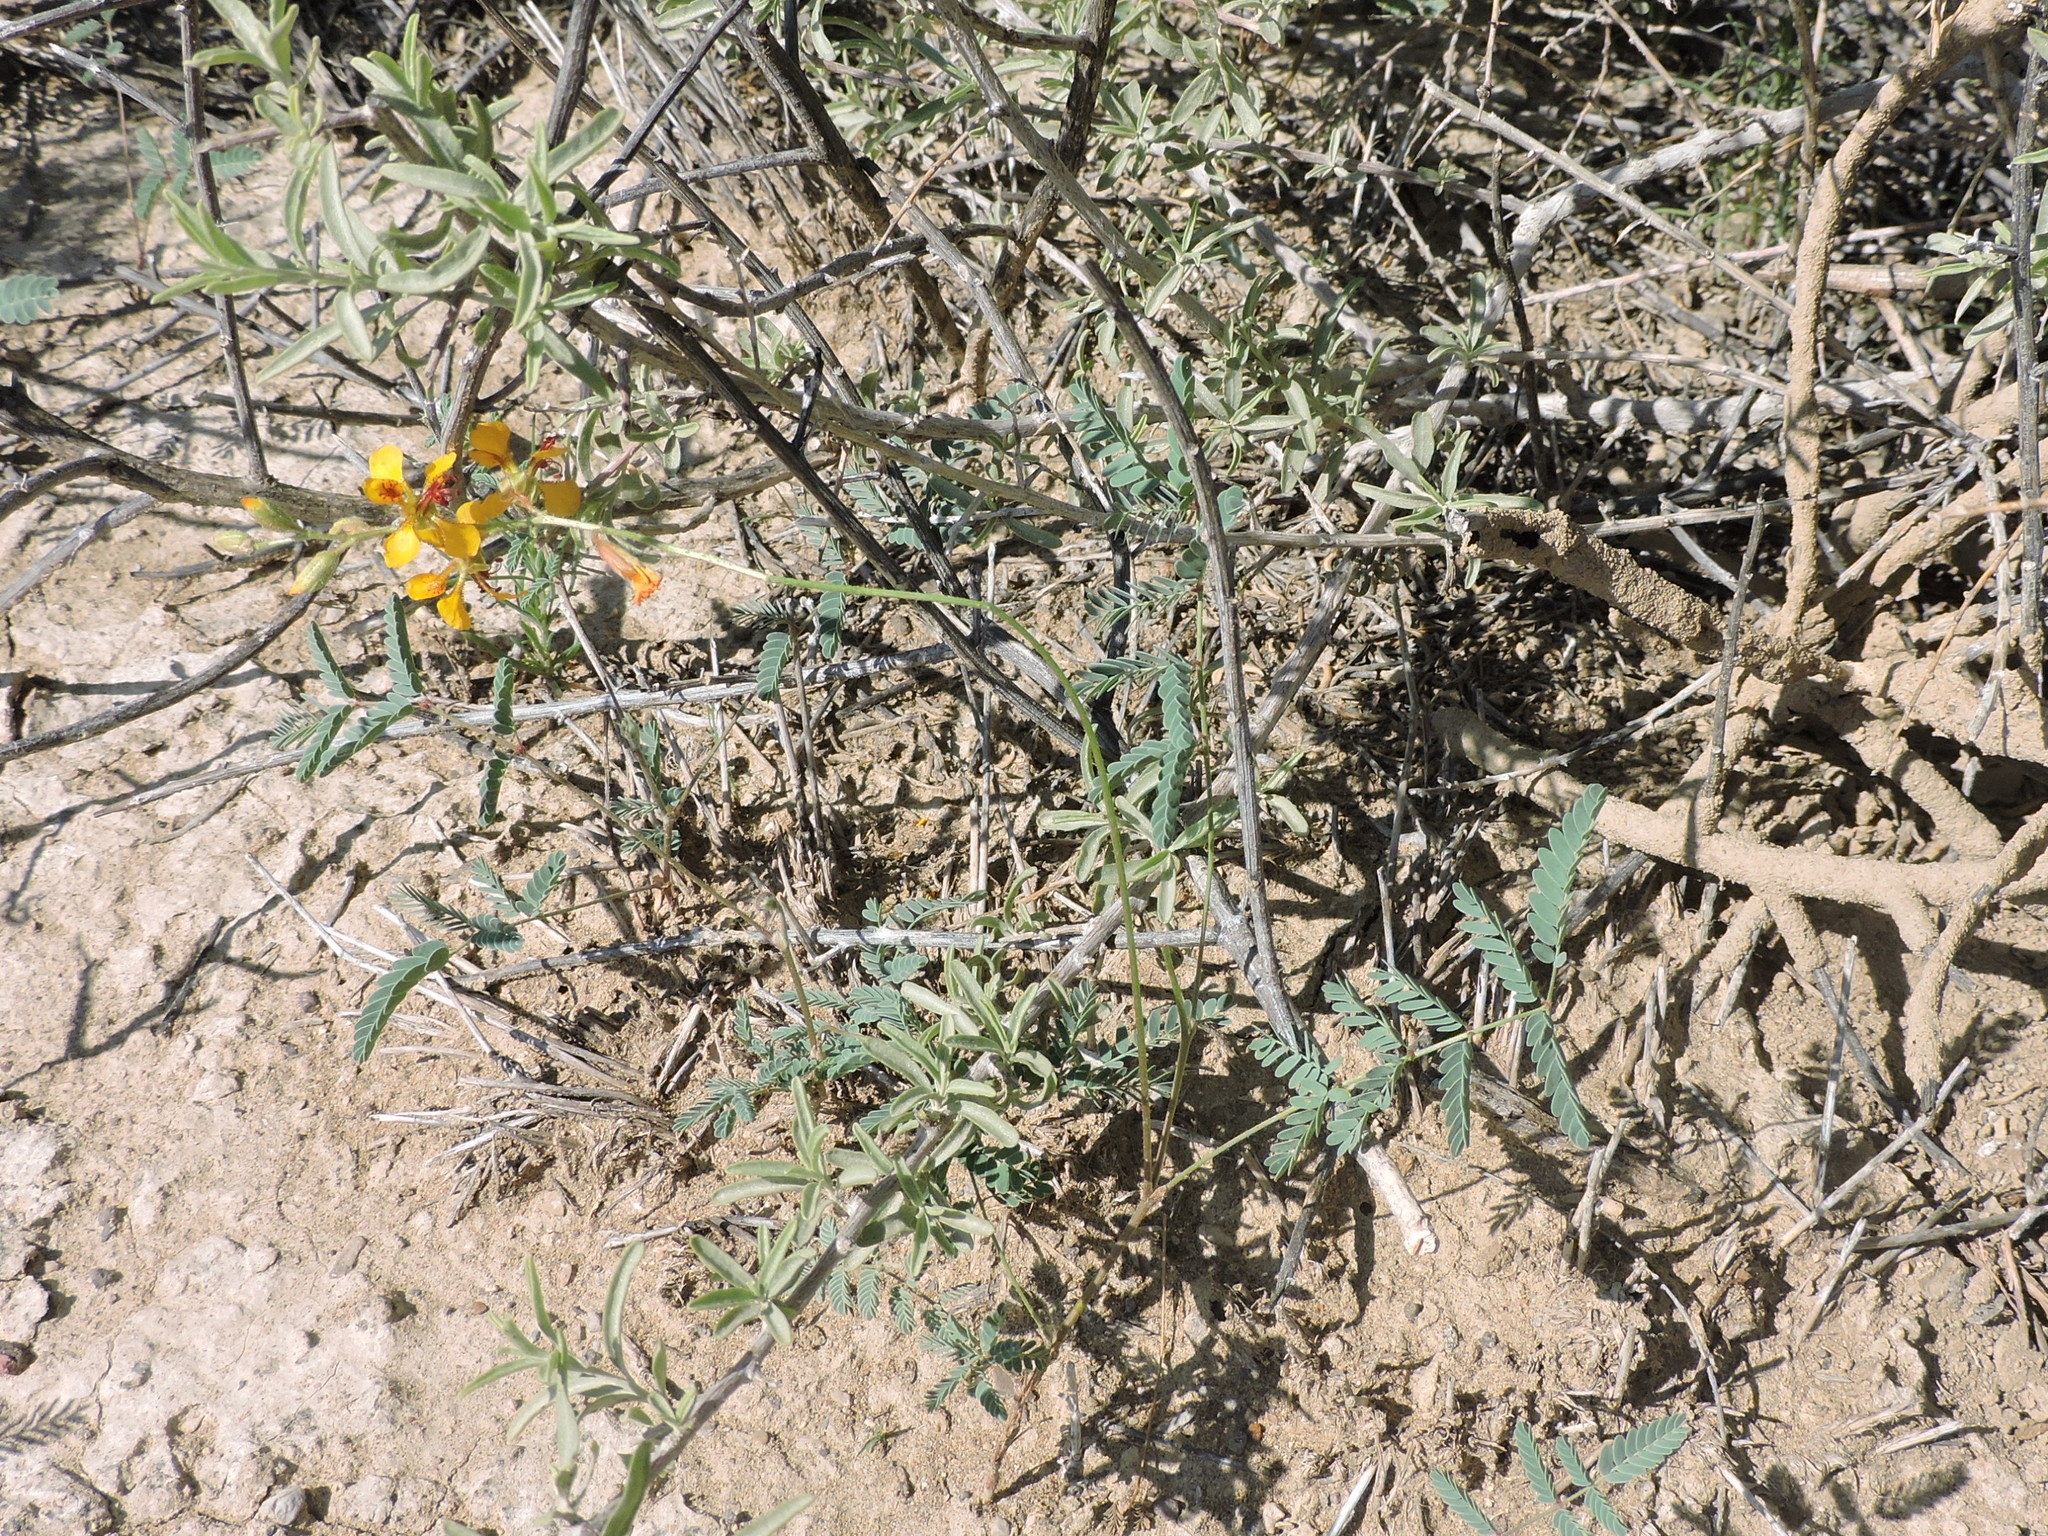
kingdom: Plantae
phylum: Tracheophyta
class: Magnoliopsida
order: Fabales
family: Fabaceae
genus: Hoffmannseggia
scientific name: Hoffmannseggia glauca
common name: Pignut
